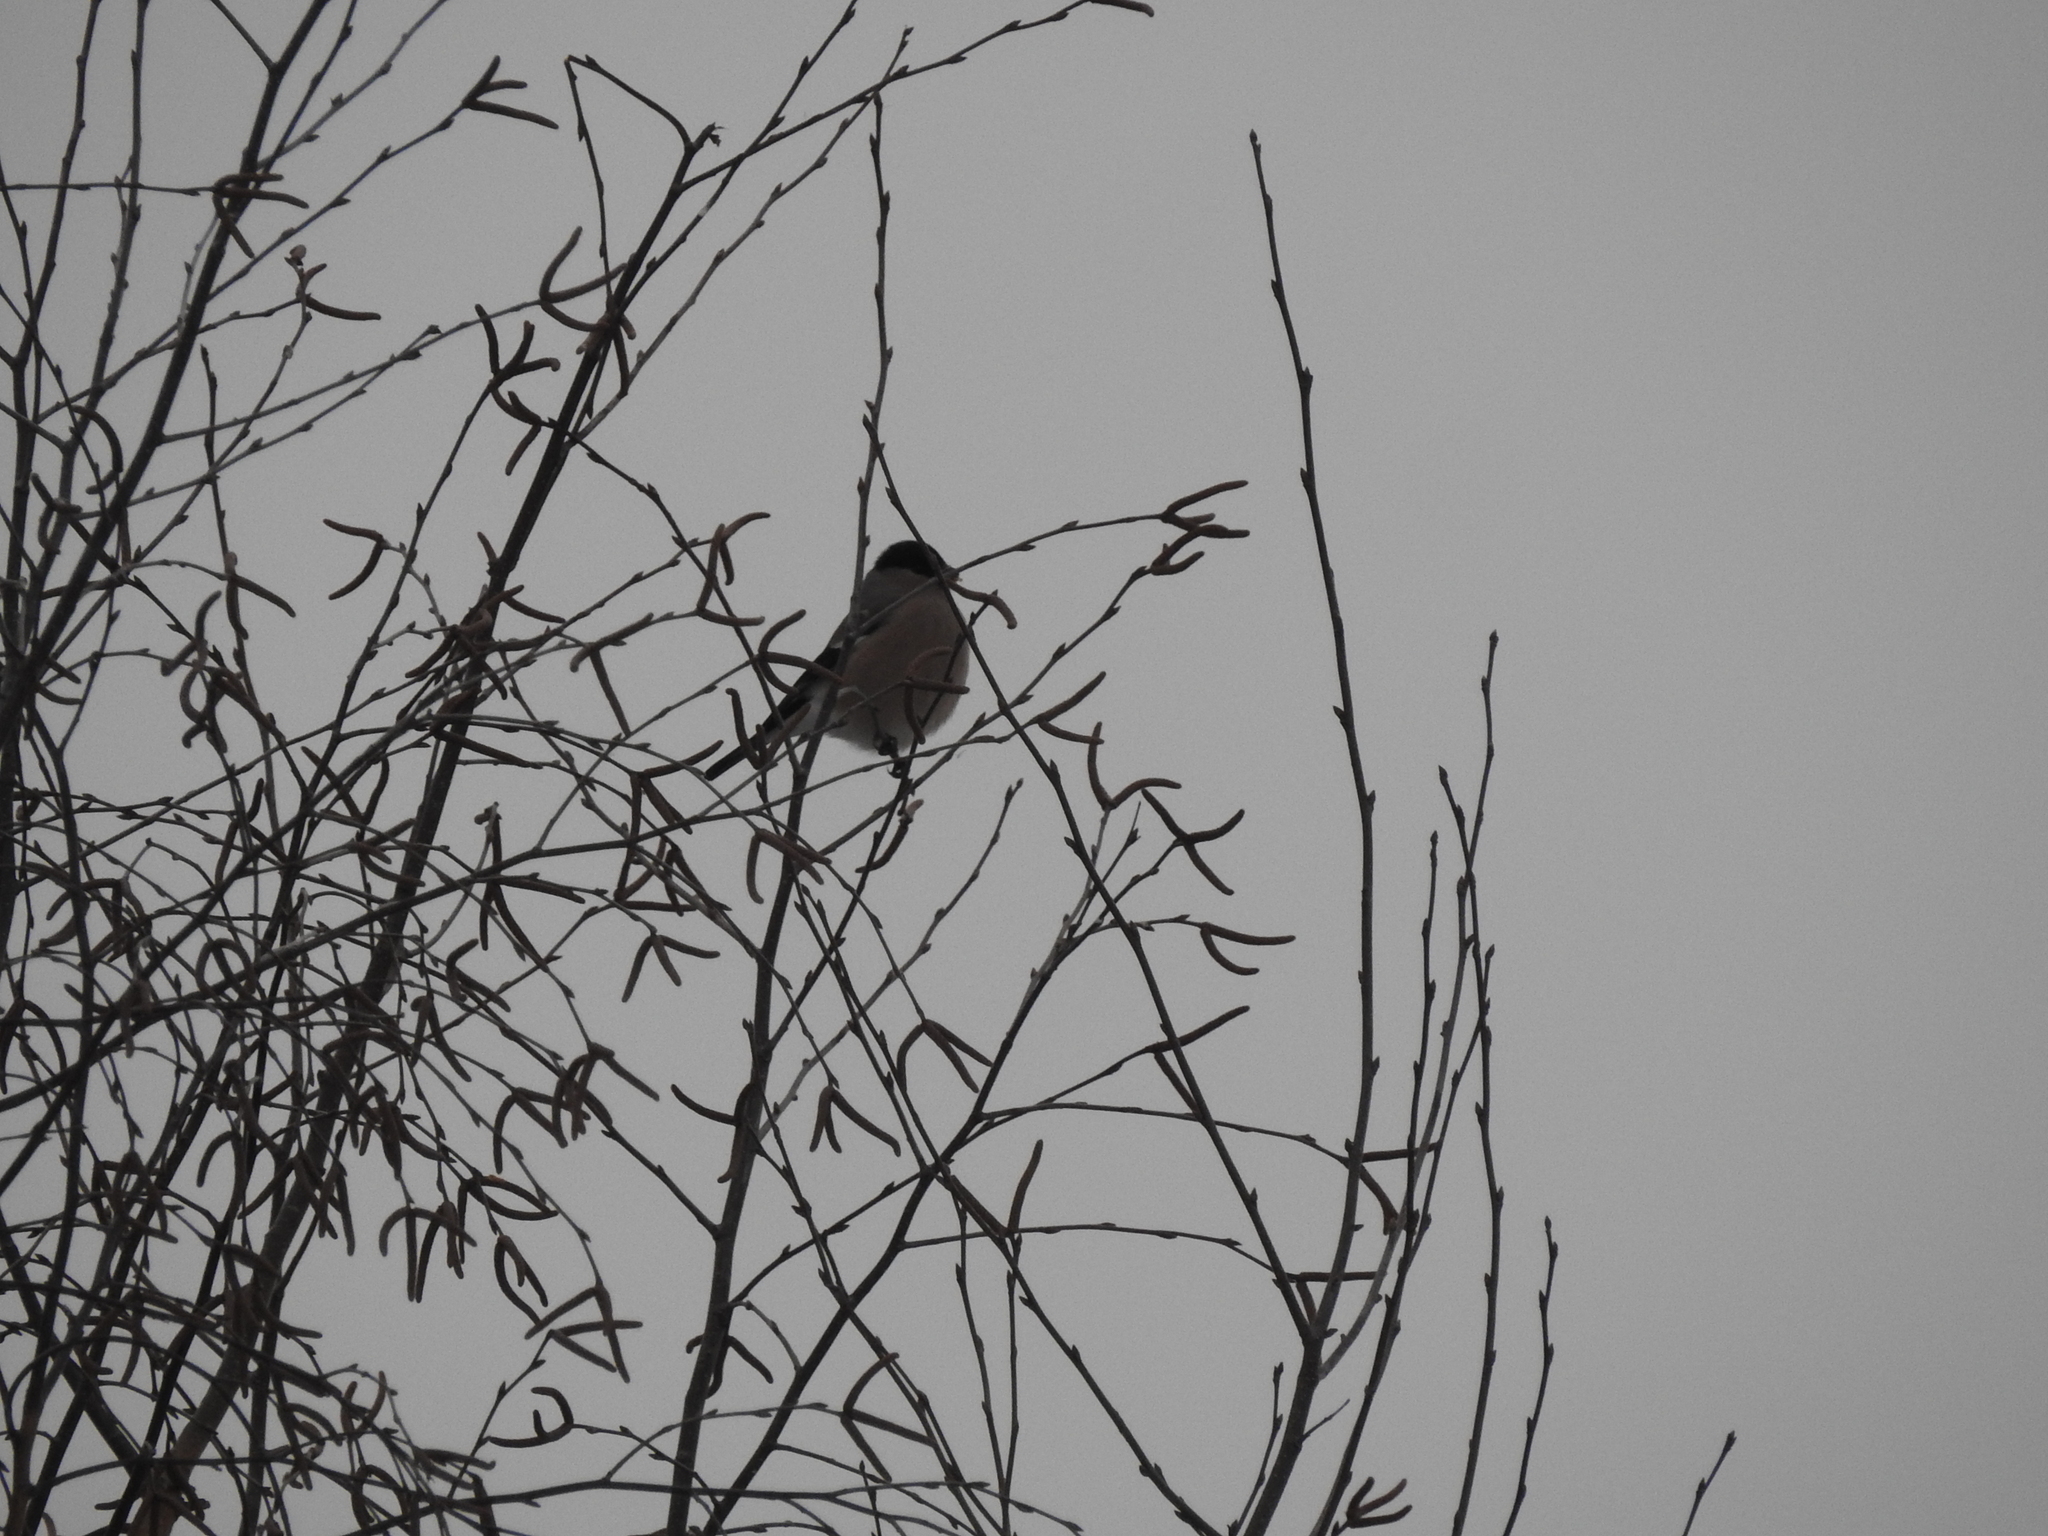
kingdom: Animalia
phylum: Chordata
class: Aves
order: Passeriformes
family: Fringillidae
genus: Pyrrhula
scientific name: Pyrrhula pyrrhula
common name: Eurasian bullfinch
